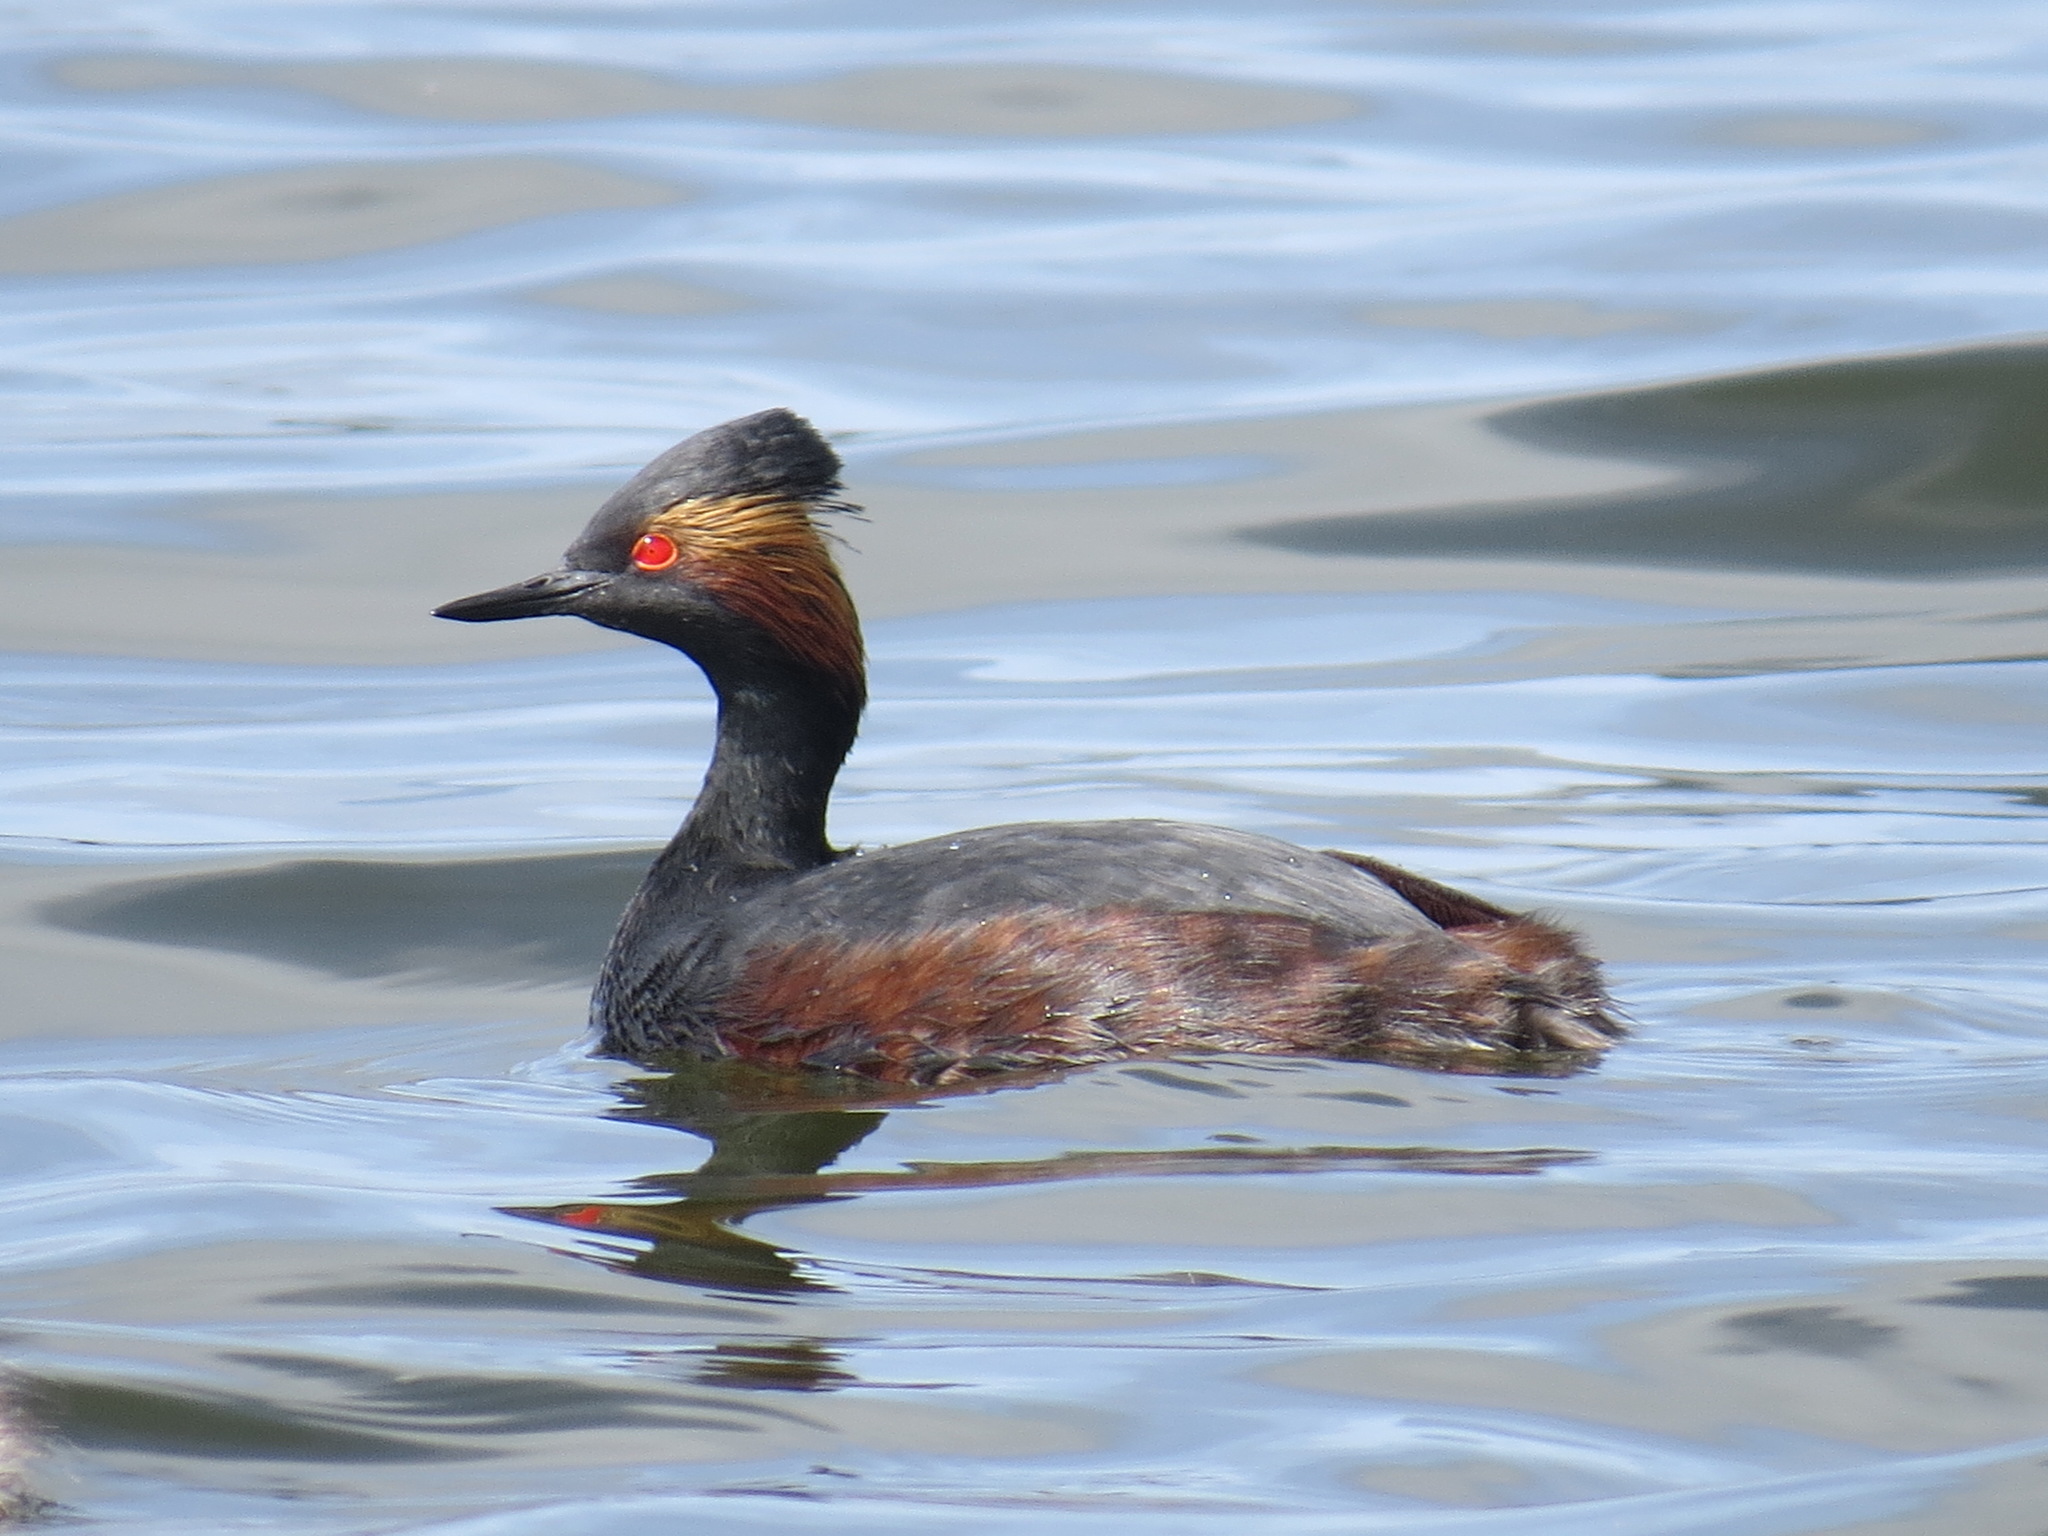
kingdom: Animalia
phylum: Chordata
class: Aves
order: Podicipediformes
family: Podicipedidae
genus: Podiceps
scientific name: Podiceps nigricollis
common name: Black-necked grebe
